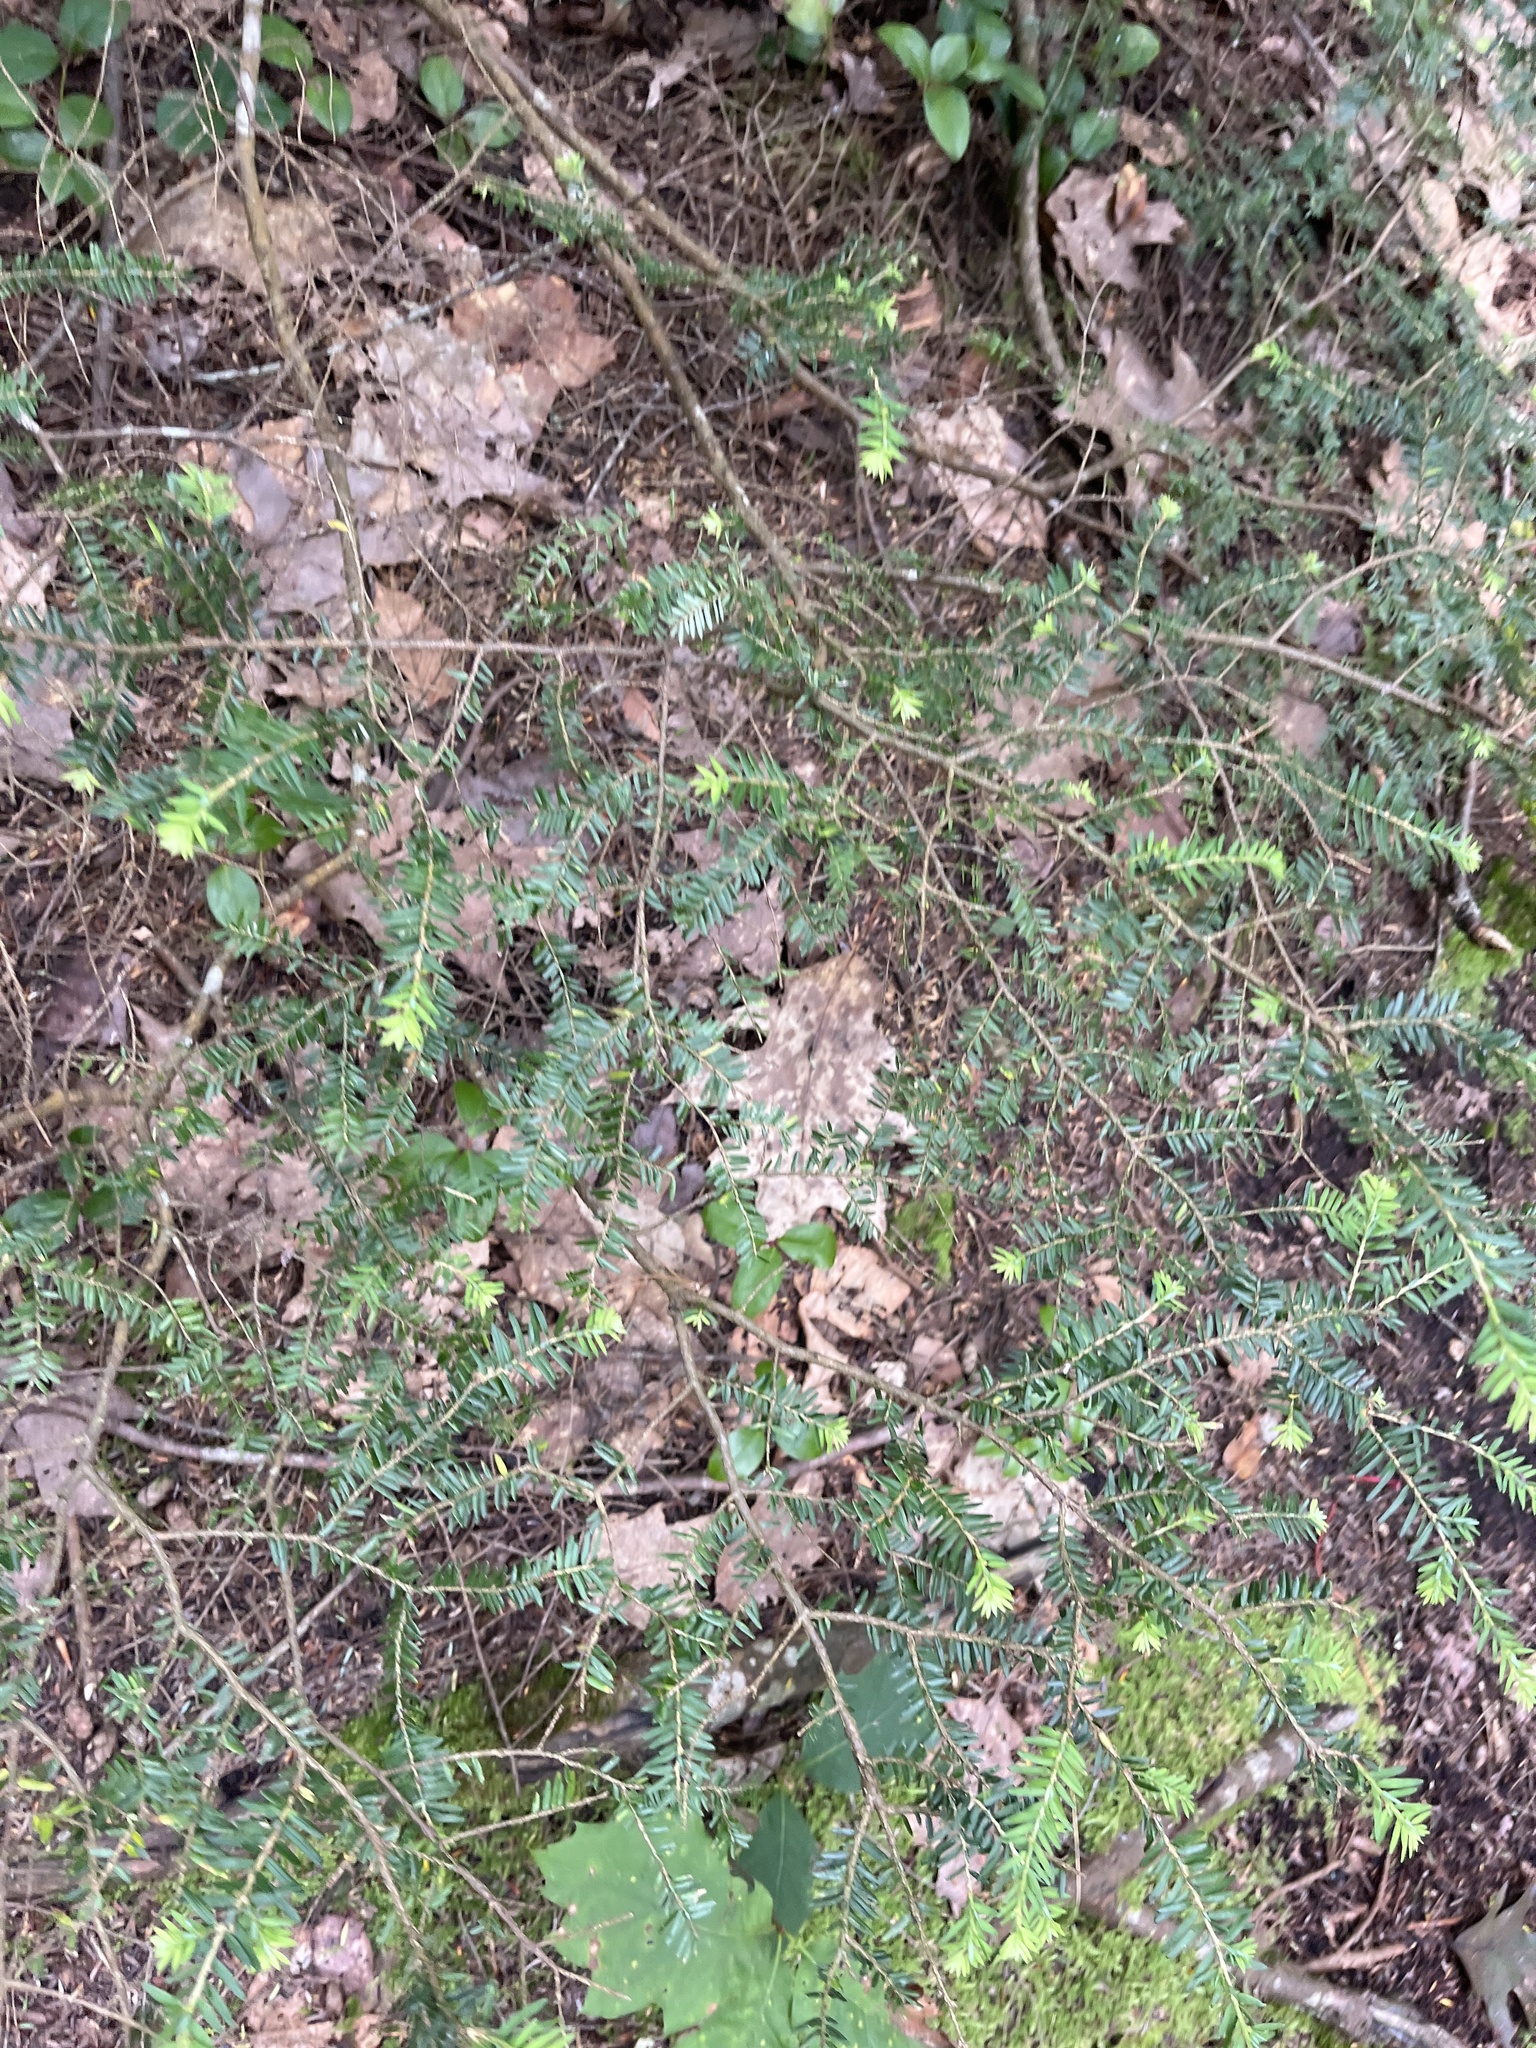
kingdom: Plantae
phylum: Tracheophyta
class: Pinopsida
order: Pinales
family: Pinaceae
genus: Tsuga
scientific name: Tsuga canadensis
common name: Eastern hemlock
